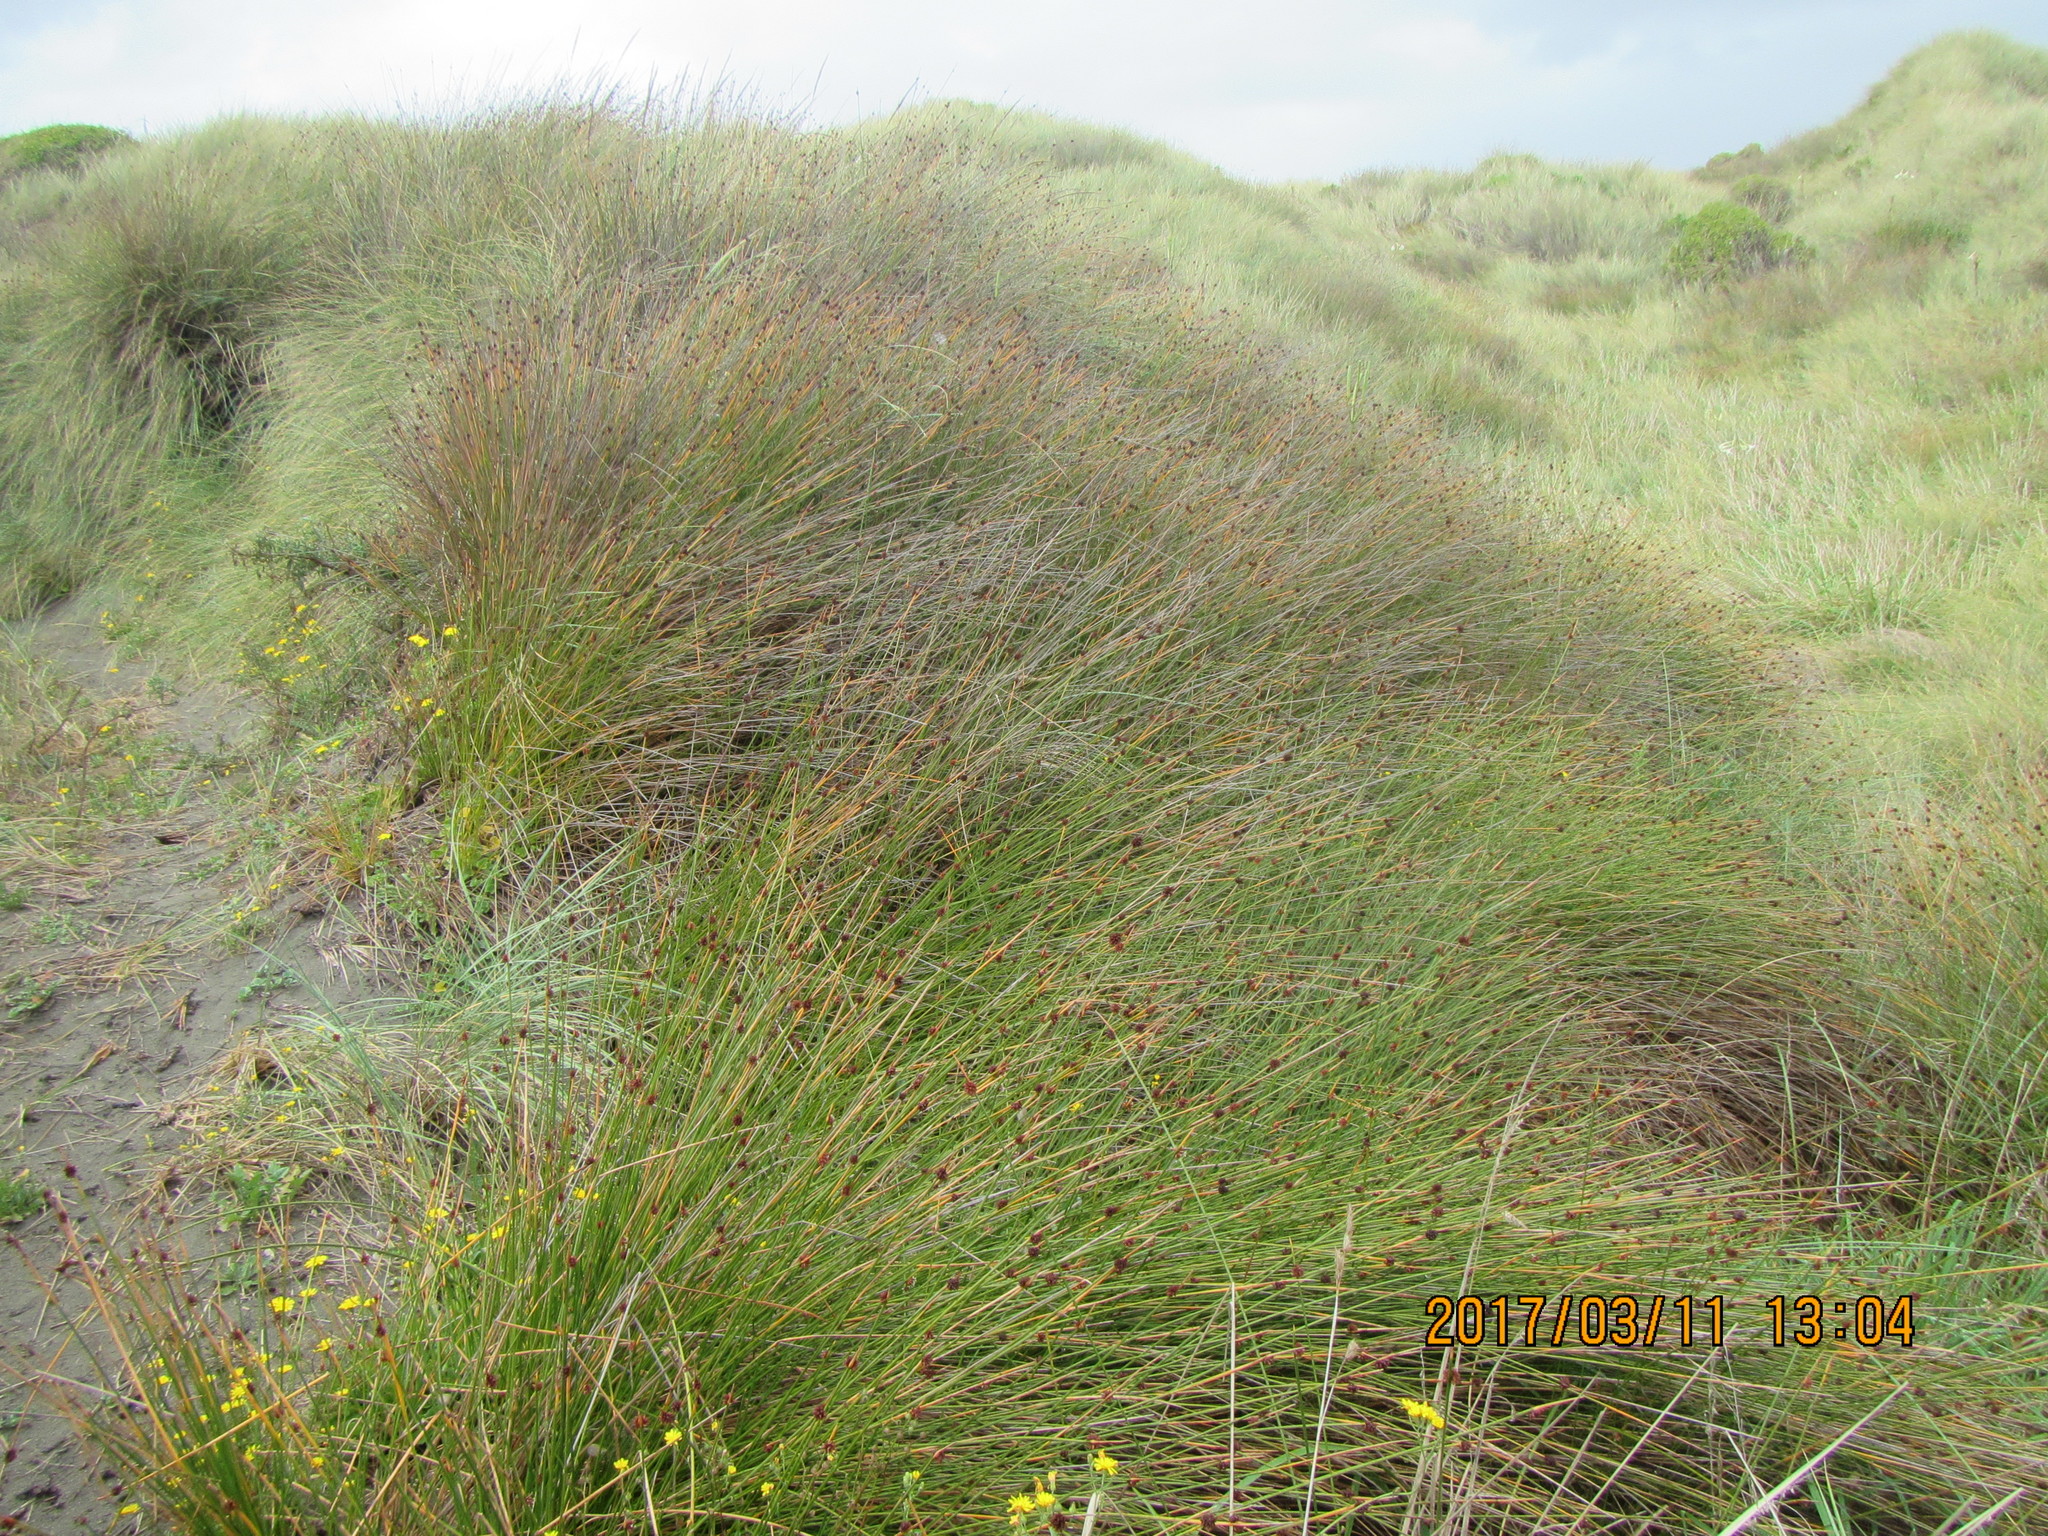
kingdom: Plantae
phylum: Tracheophyta
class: Liliopsida
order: Poales
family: Cyperaceae
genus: Ficinia
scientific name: Ficinia nodosa
